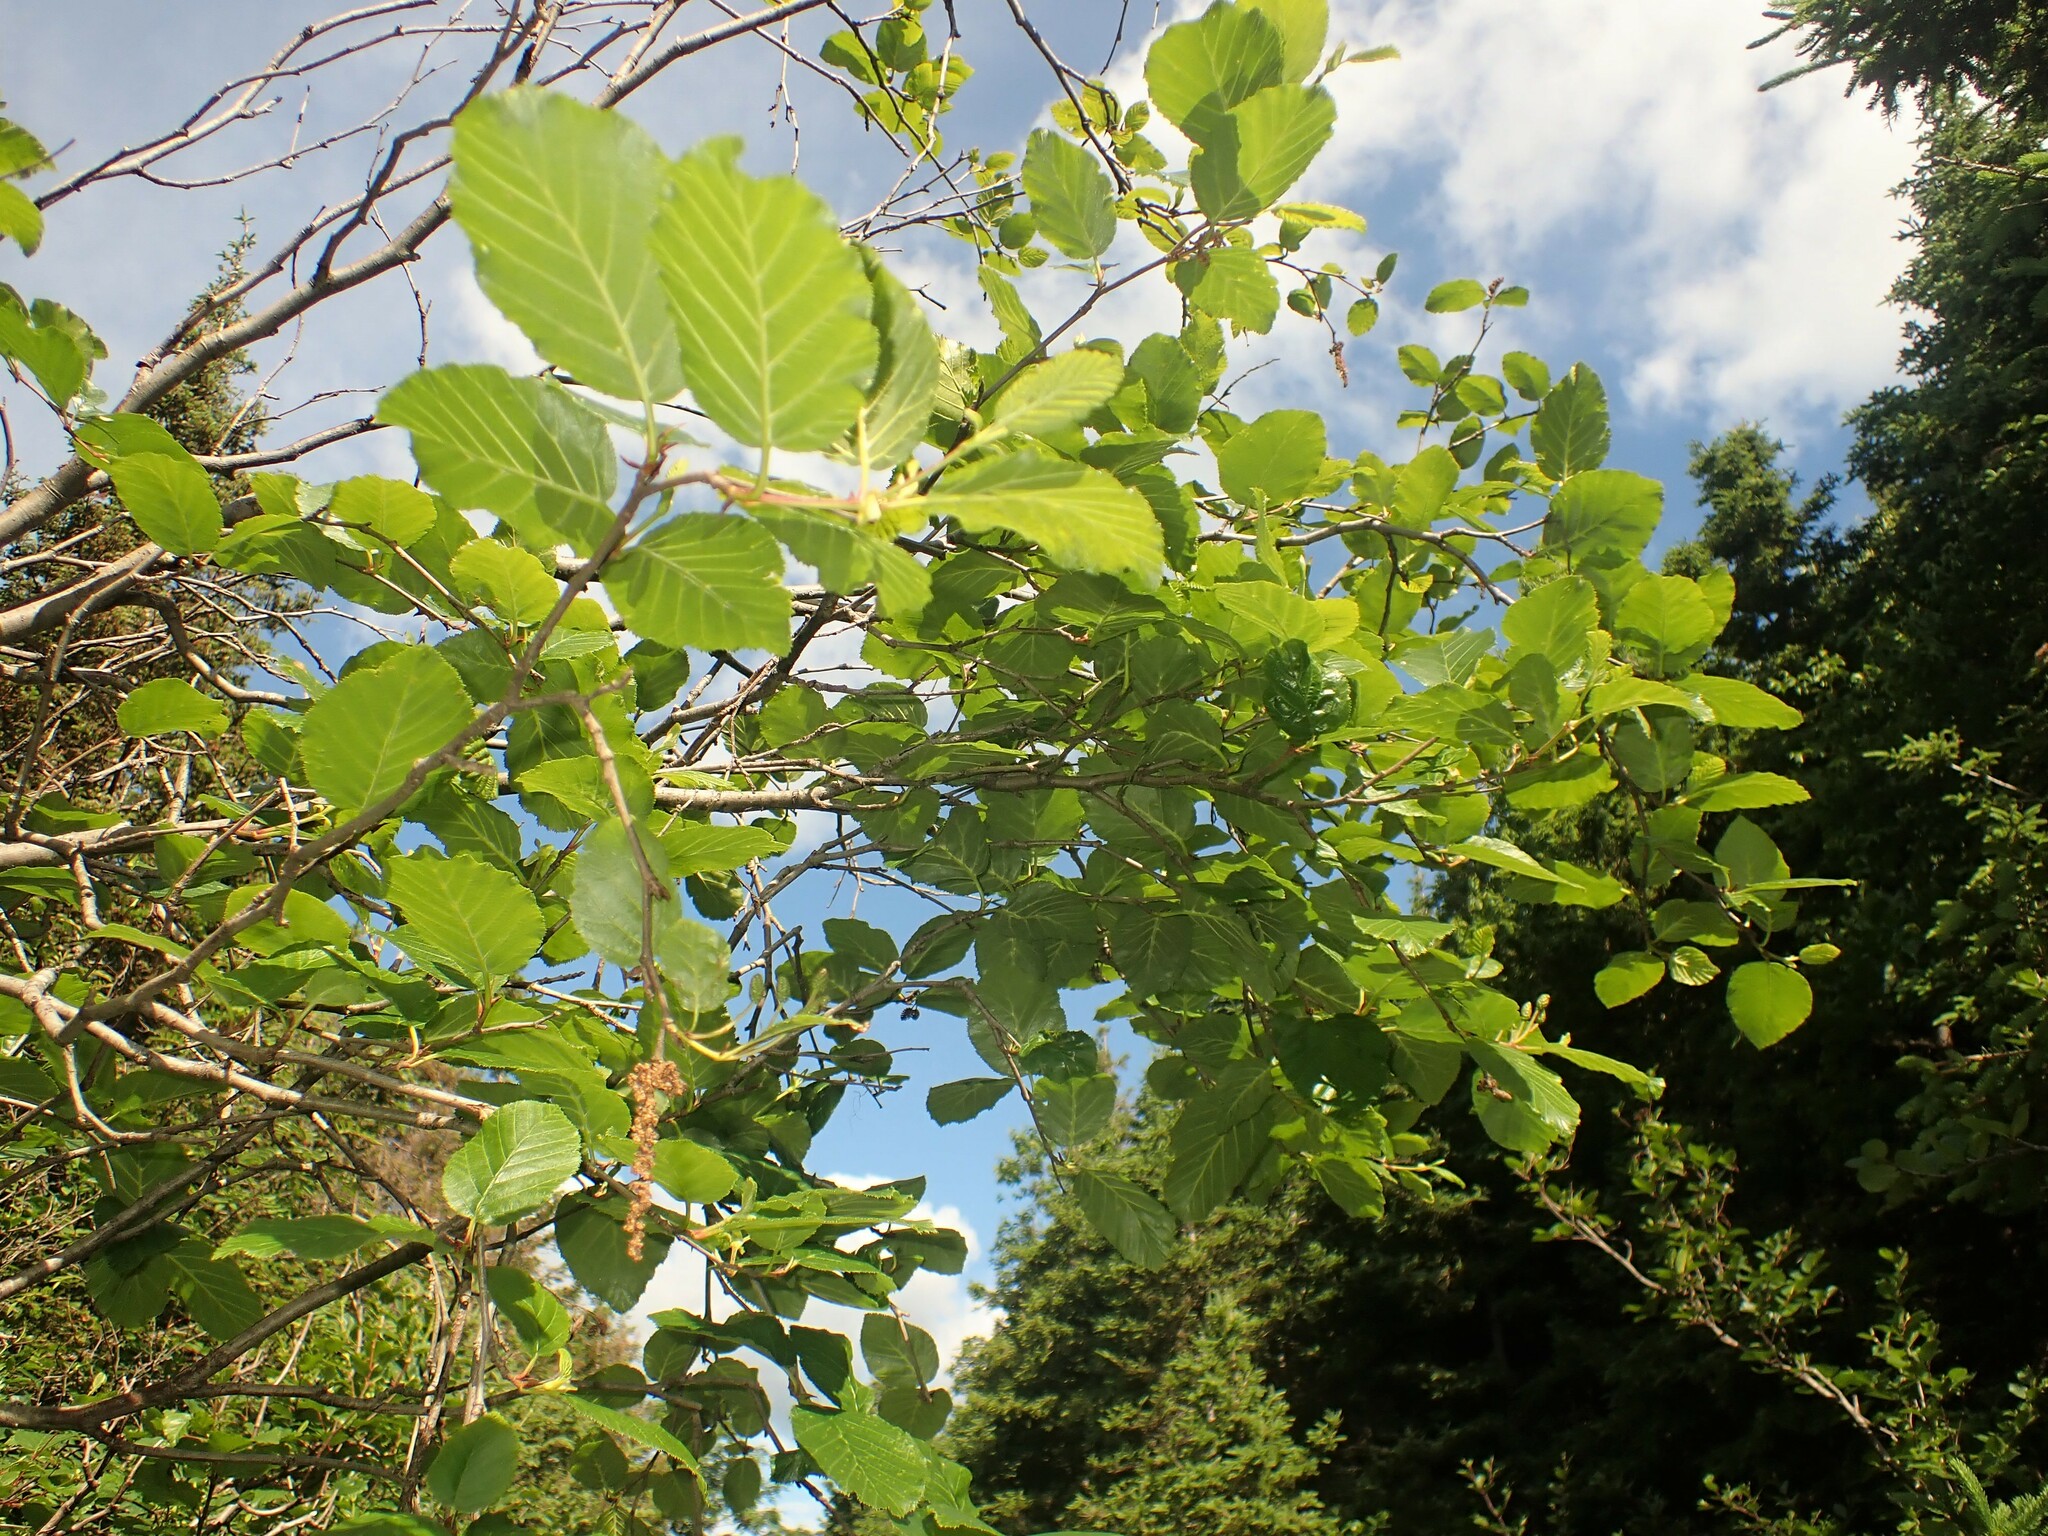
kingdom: Plantae
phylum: Tracheophyta
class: Magnoliopsida
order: Fagales
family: Betulaceae
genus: Alnus
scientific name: Alnus alnobetula
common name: Green alder
